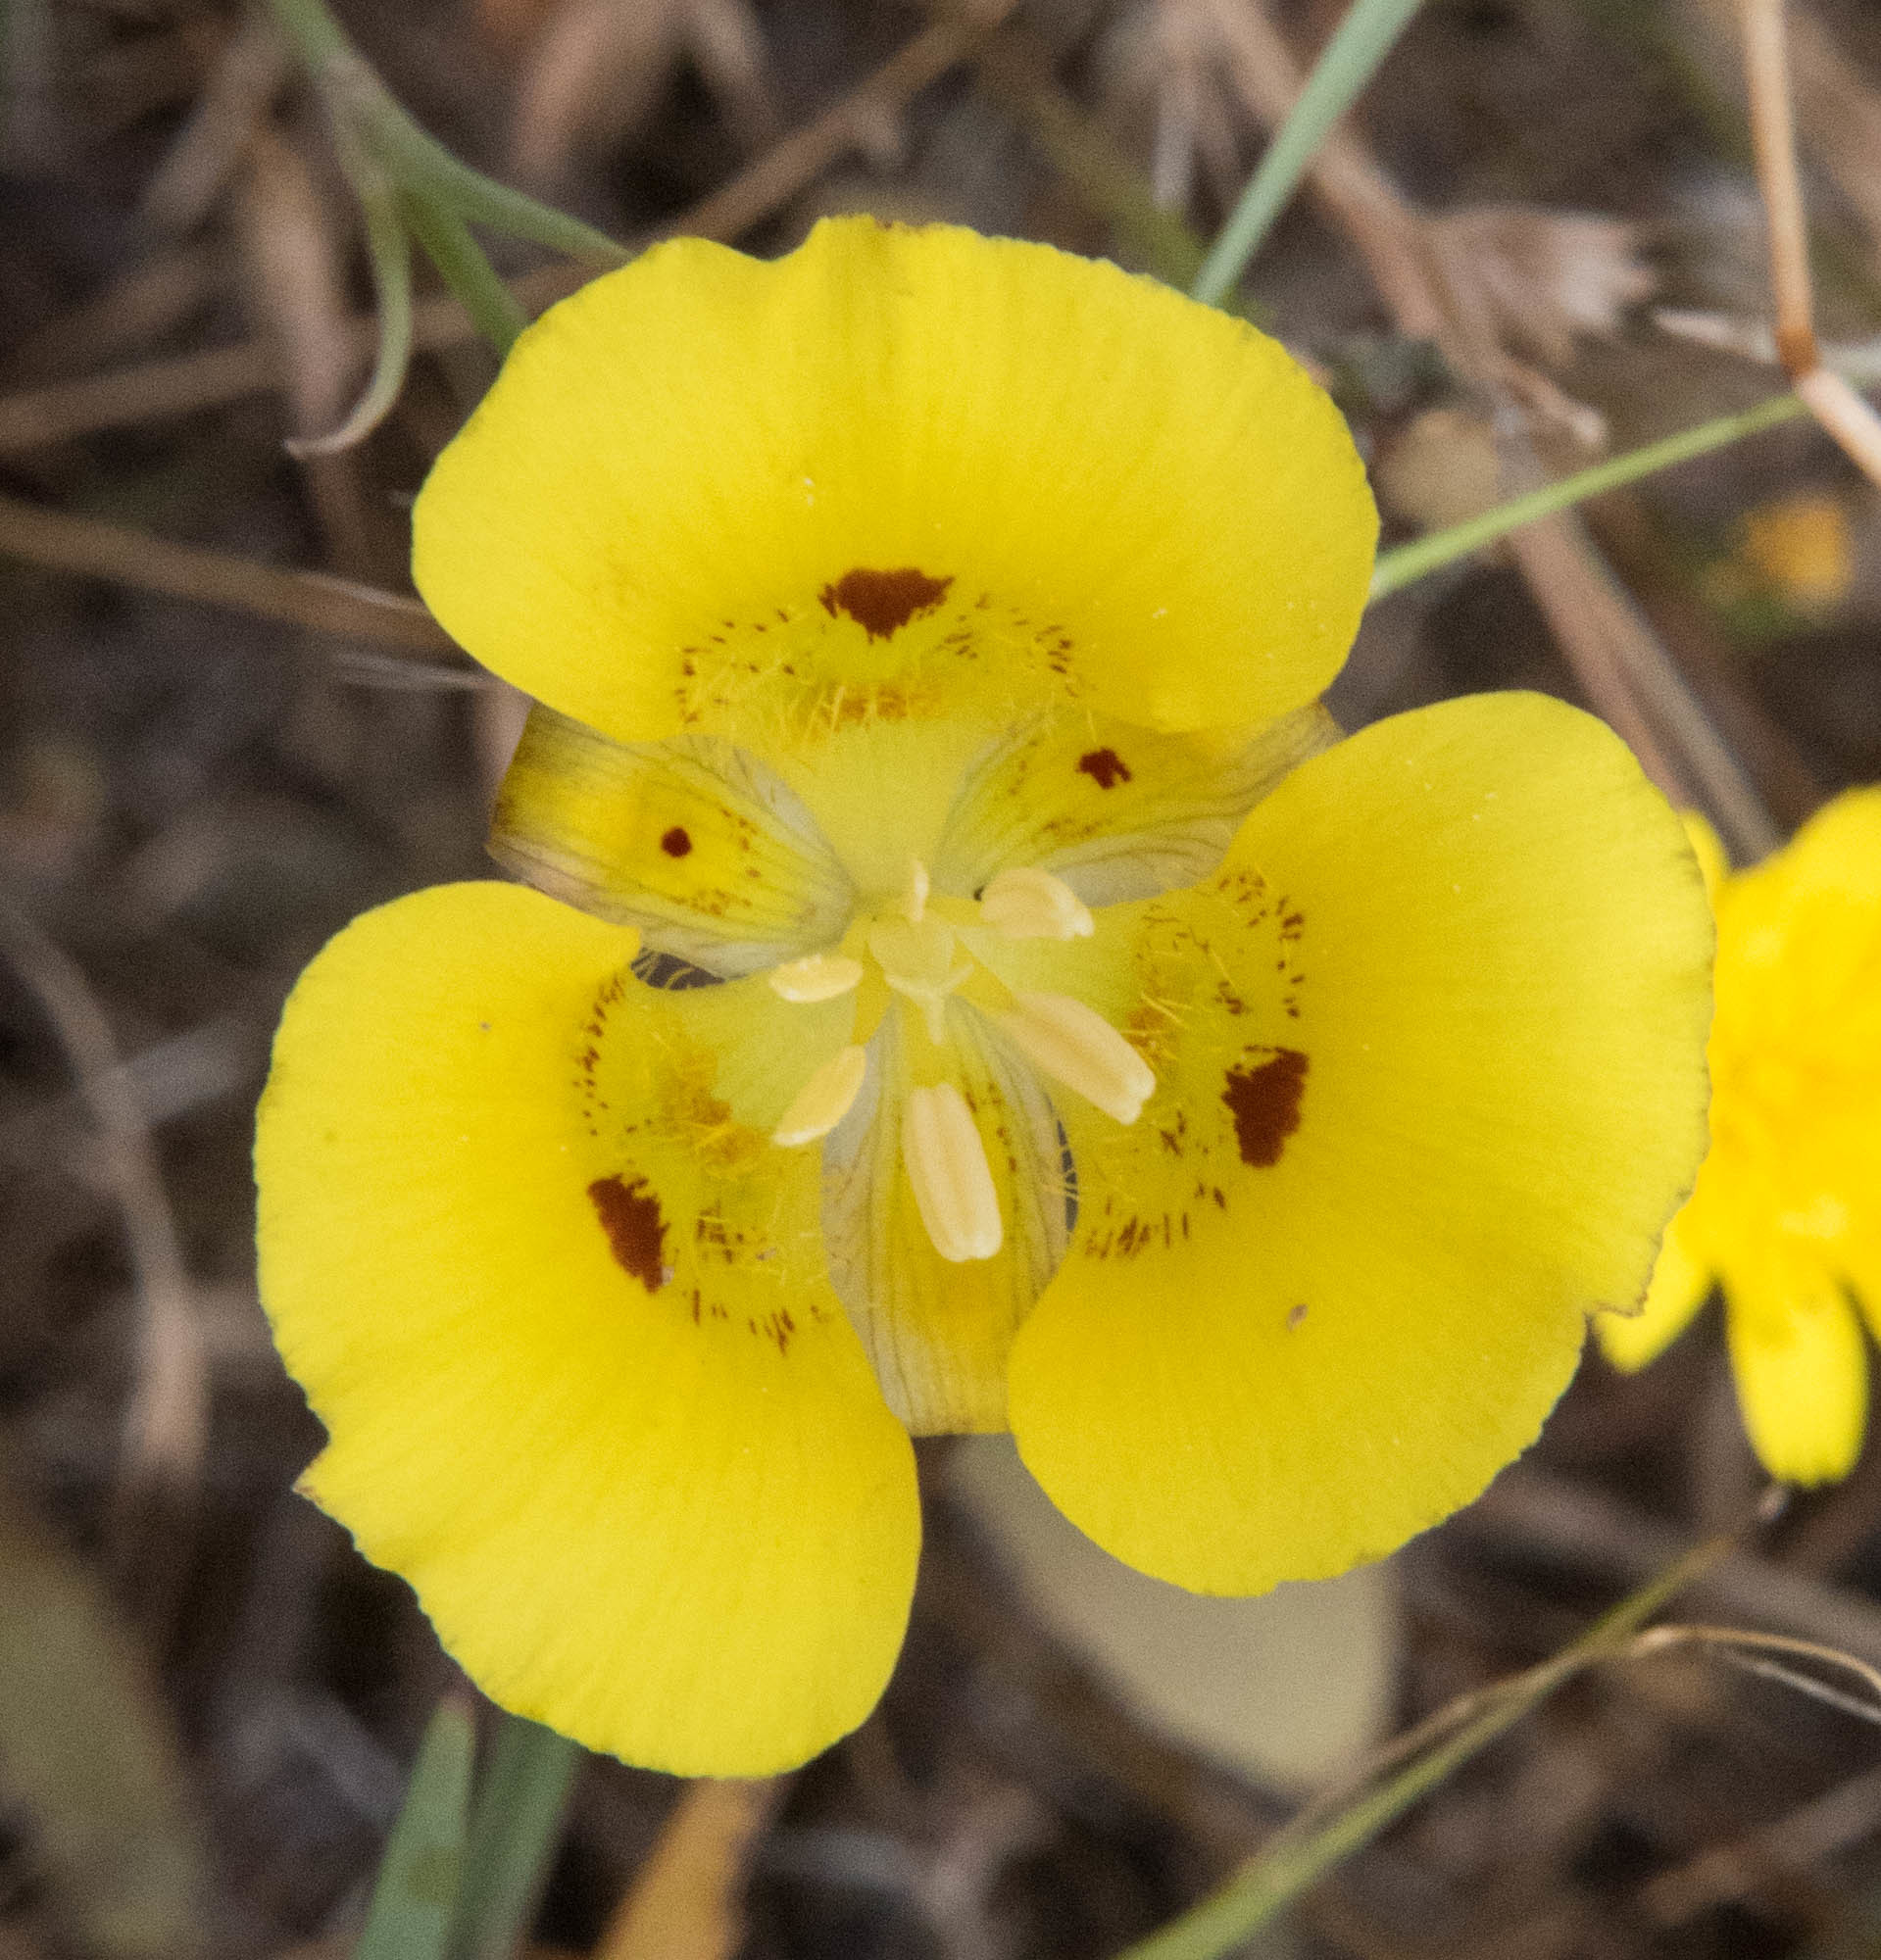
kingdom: Plantae
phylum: Tracheophyta
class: Liliopsida
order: Liliales
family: Liliaceae
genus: Calochortus
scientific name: Calochortus luteus
